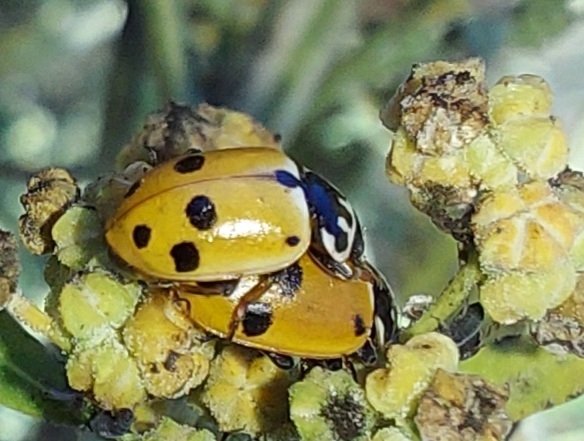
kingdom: Animalia
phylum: Arthropoda
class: Insecta
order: Coleoptera
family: Coccinellidae
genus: Hippodamia
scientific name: Hippodamia variegata
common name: Ladybird beetle
